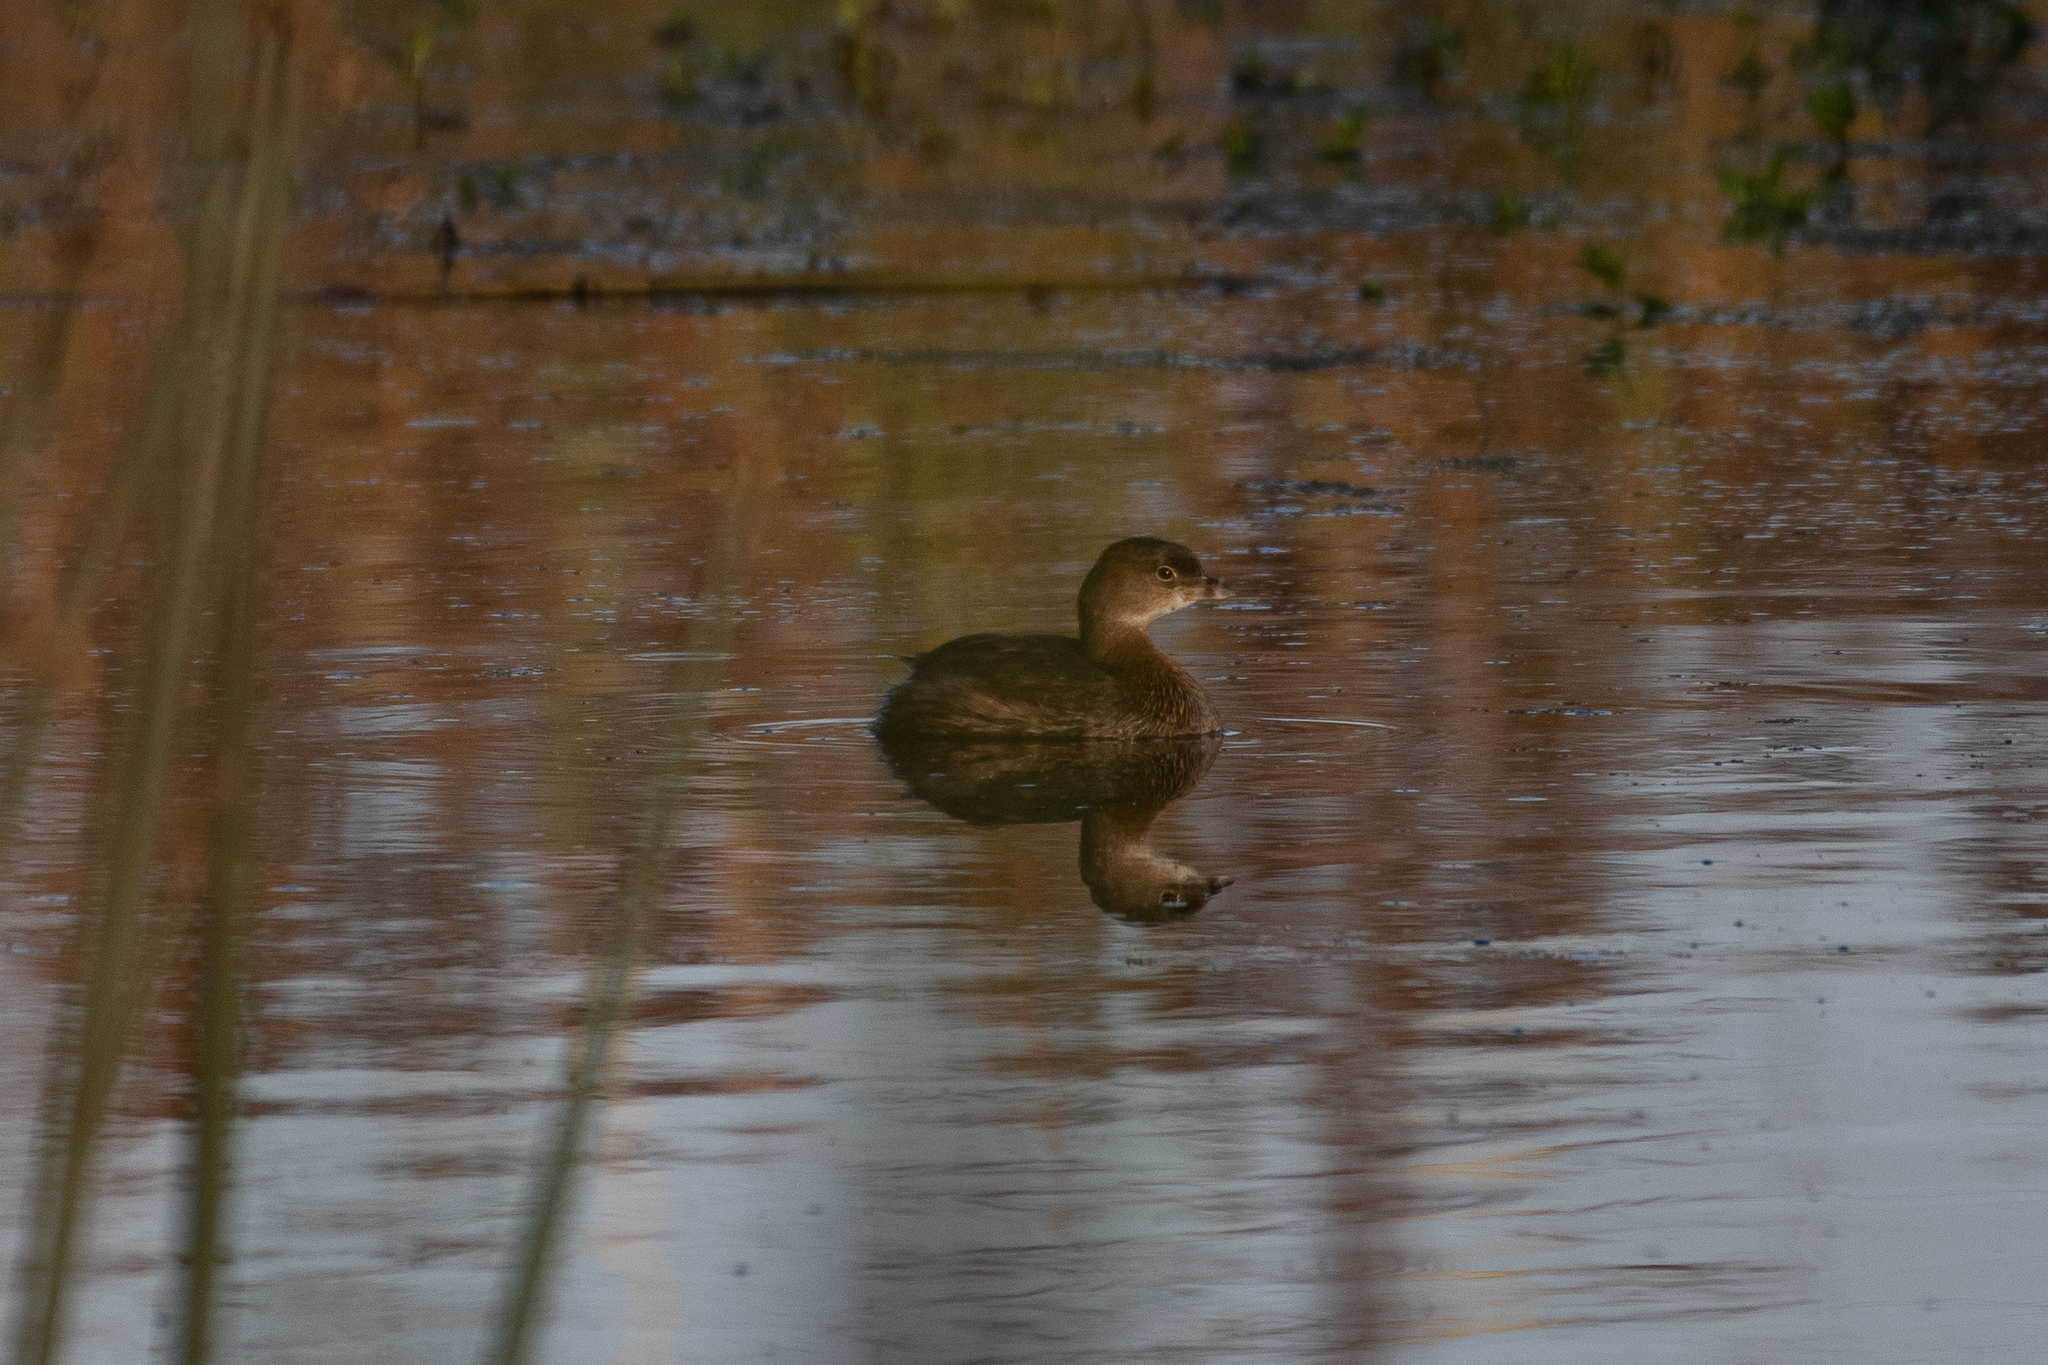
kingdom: Animalia
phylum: Chordata
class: Aves
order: Podicipediformes
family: Podicipedidae
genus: Podilymbus
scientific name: Podilymbus podiceps
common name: Pied-billed grebe
